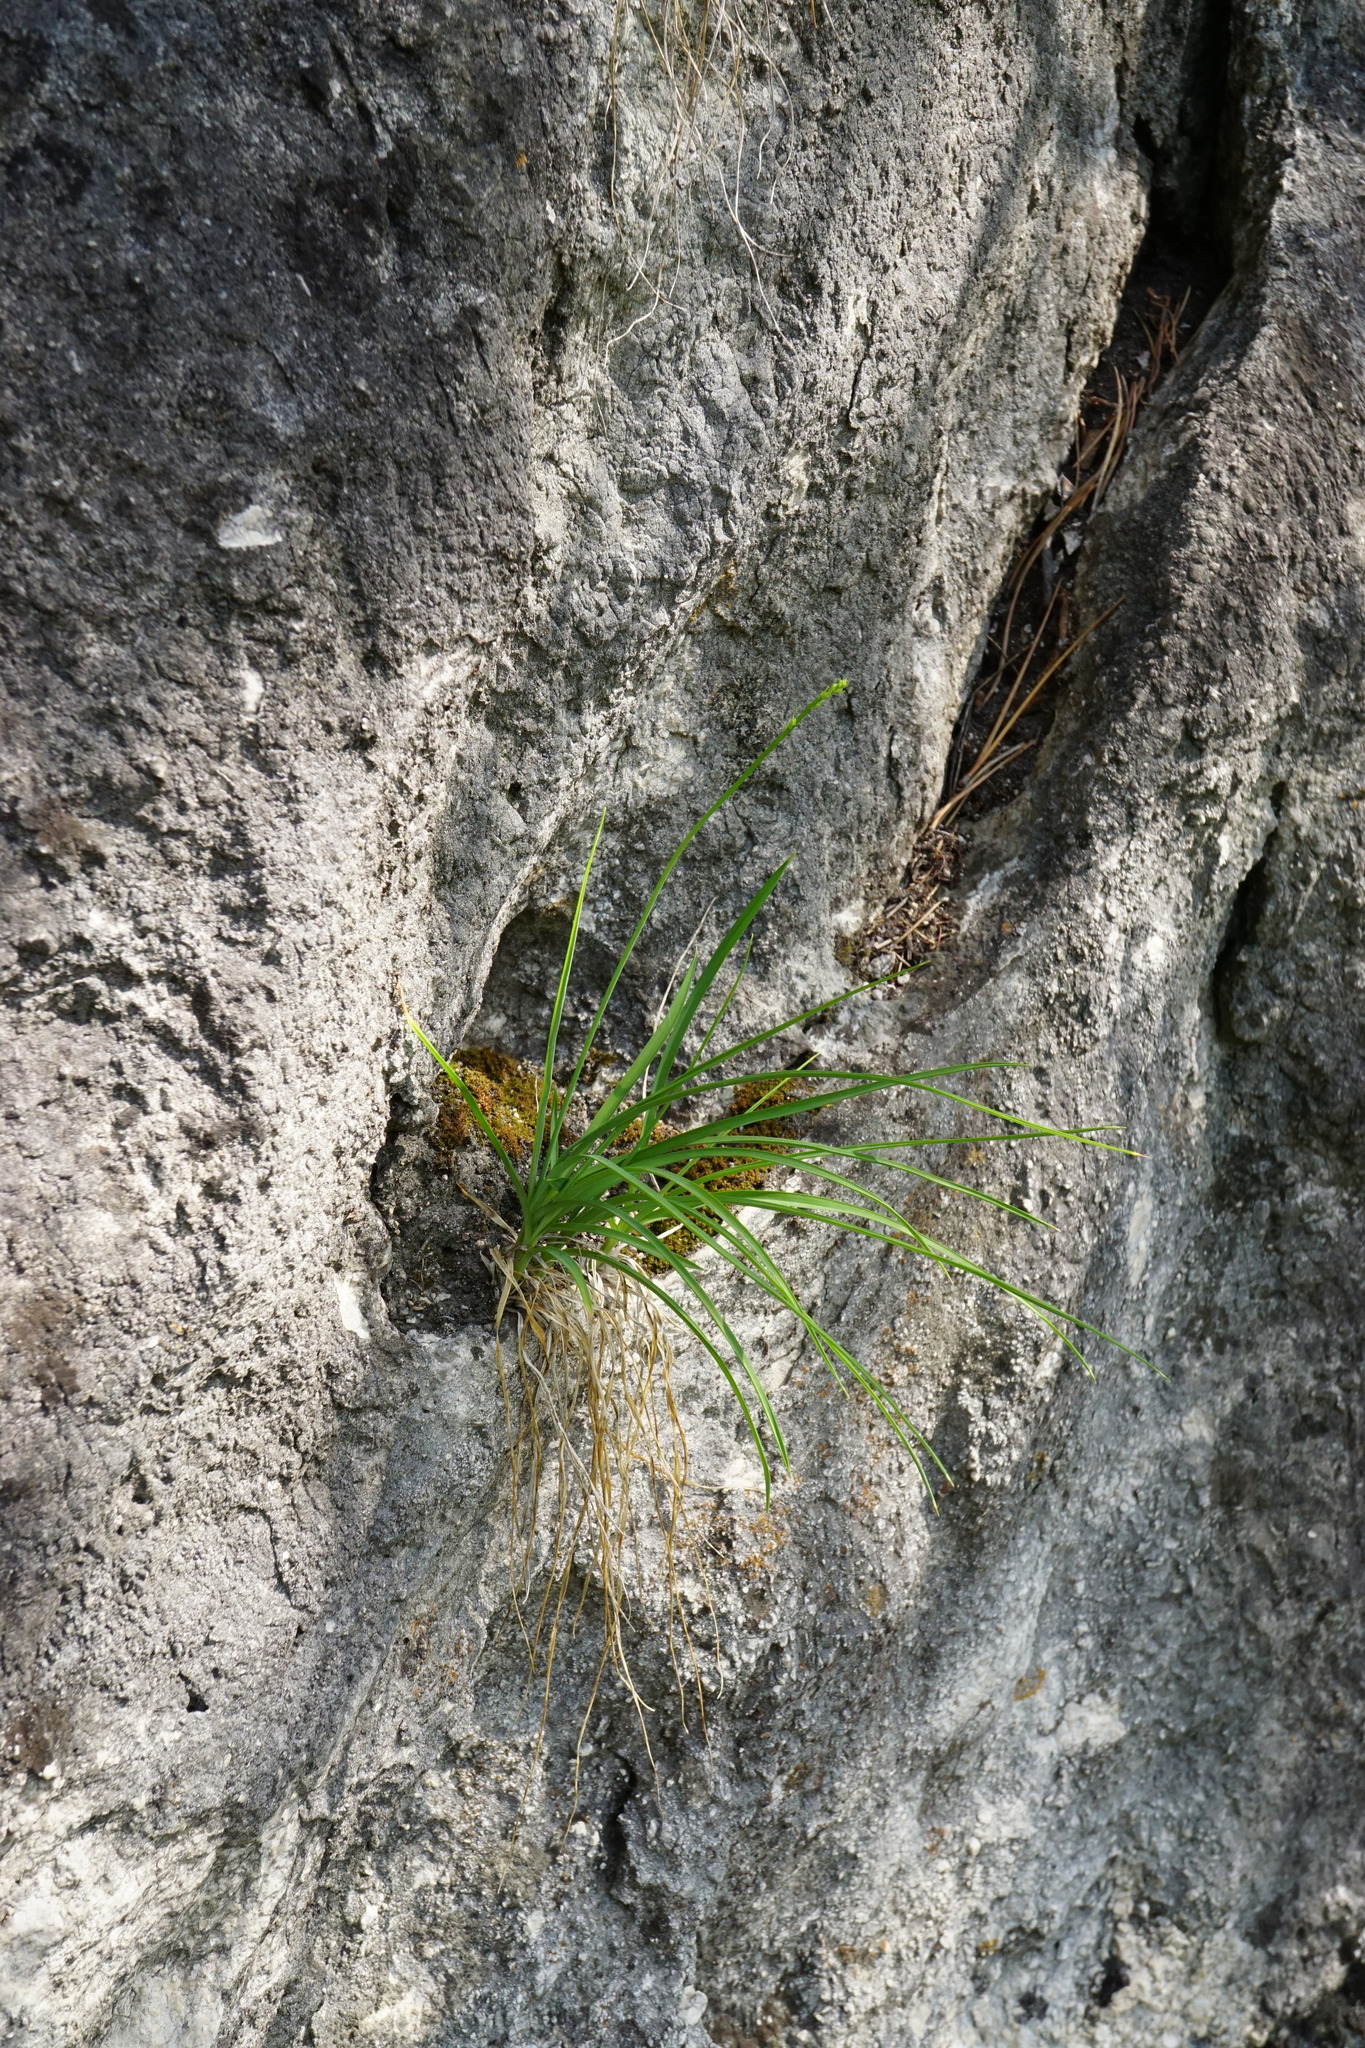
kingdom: Plantae
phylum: Tracheophyta
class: Liliopsida
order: Asparagales
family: Asparagaceae
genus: Anthericum
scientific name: Anthericum ramosum
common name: Branched st. bernard's-lily
